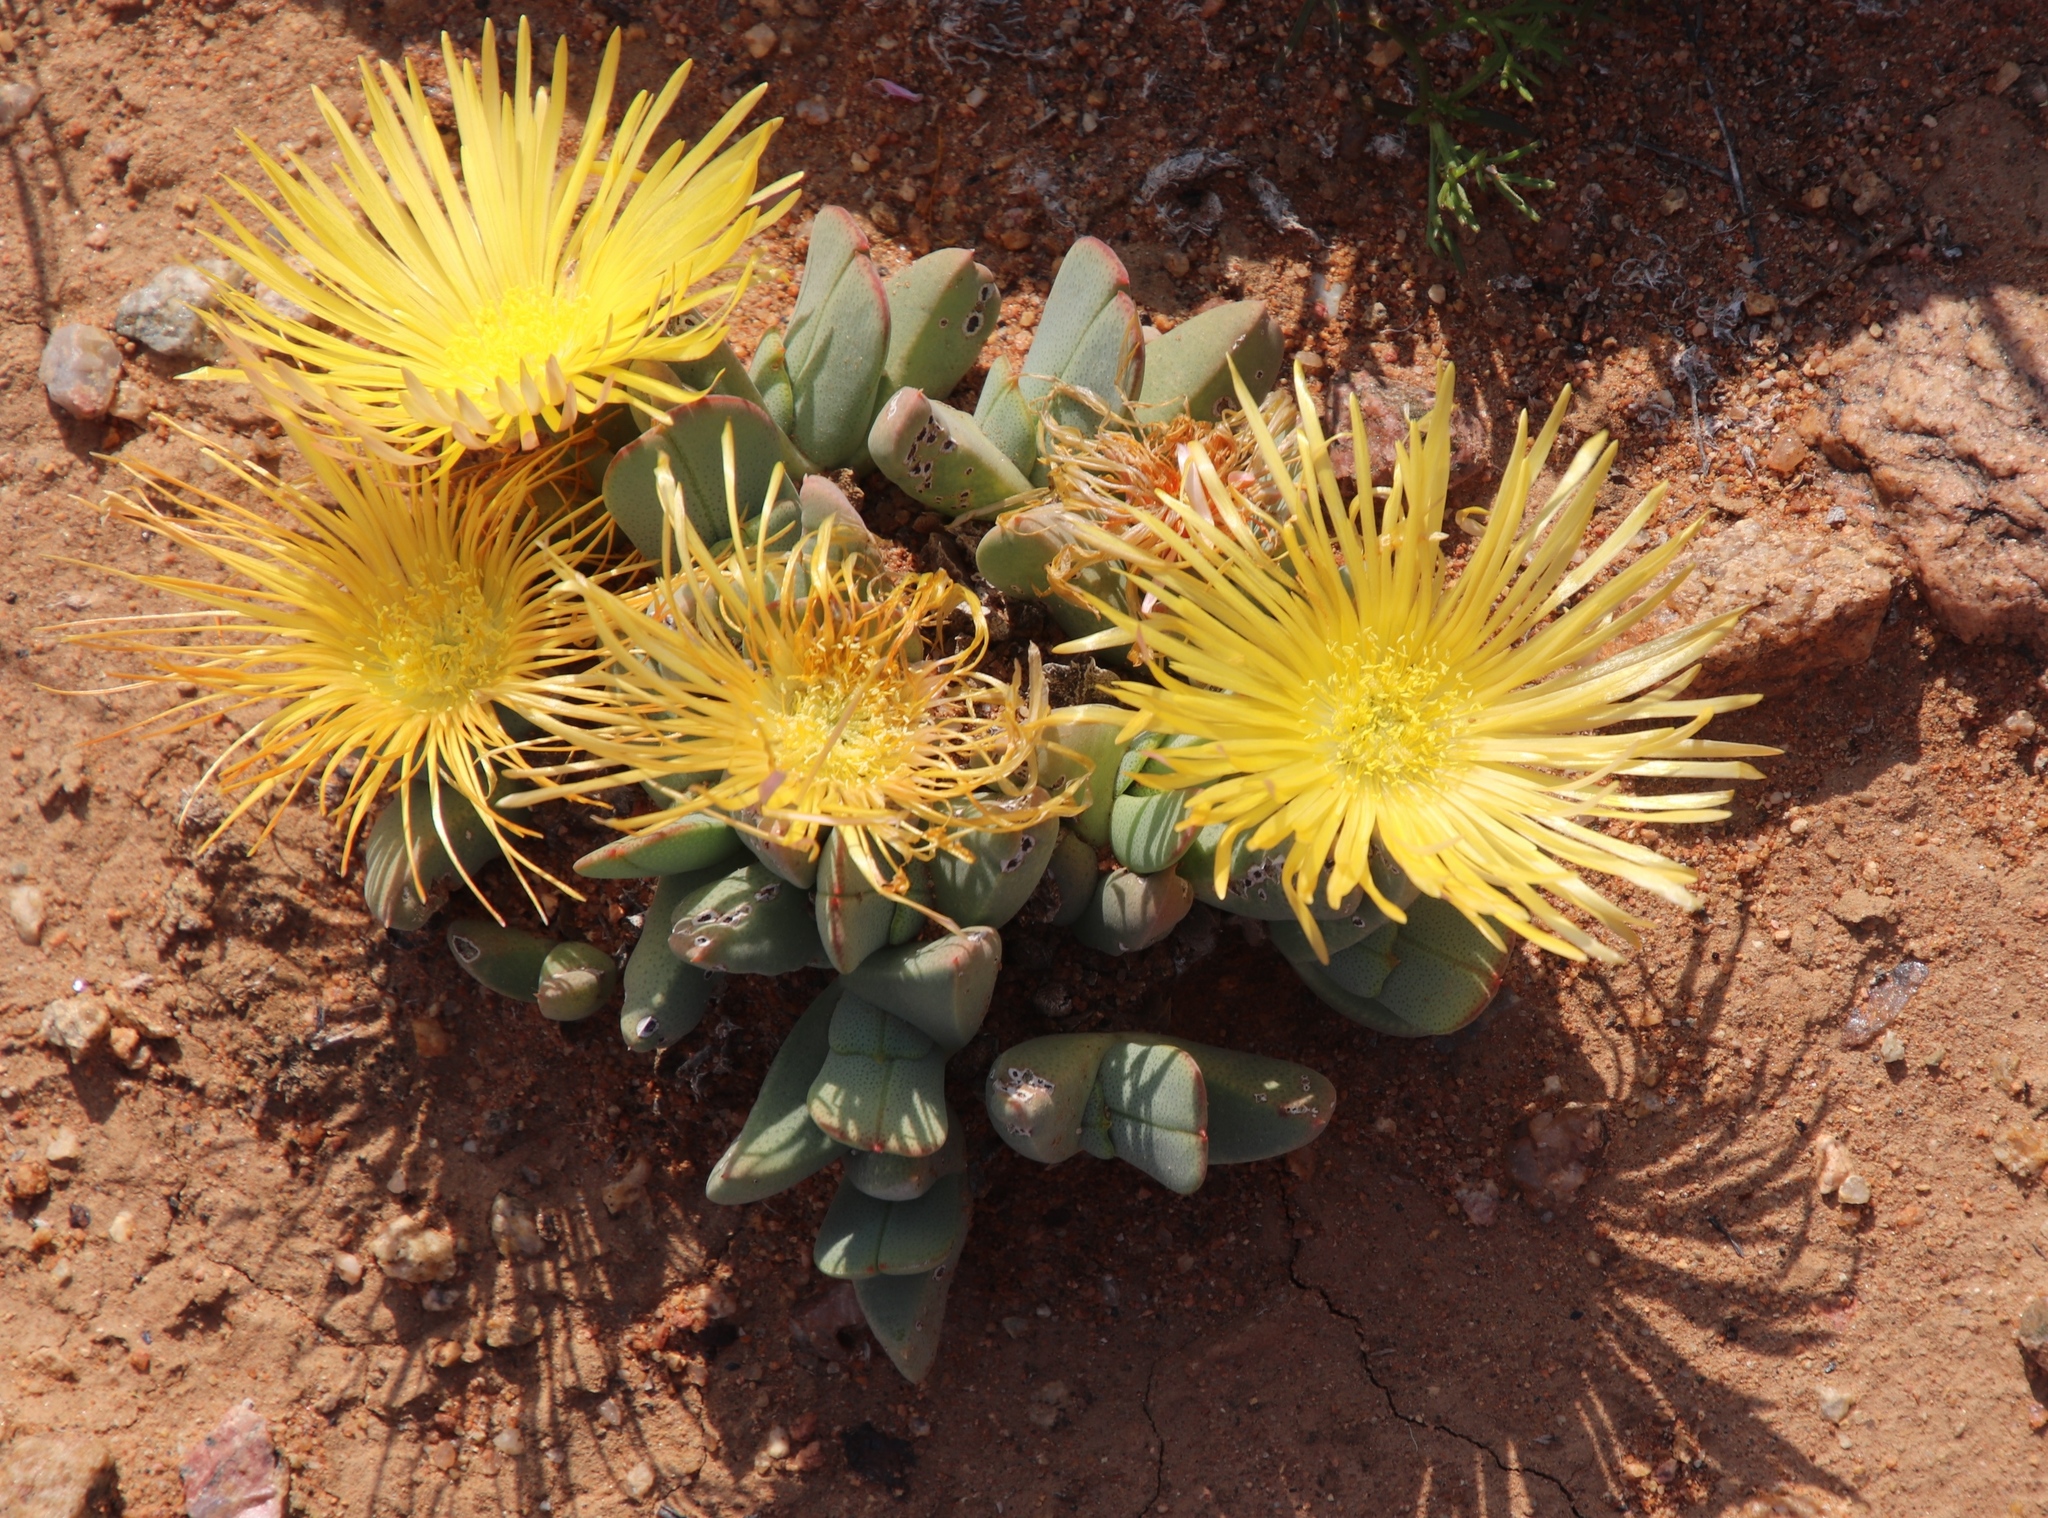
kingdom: Plantae
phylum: Tracheophyta
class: Magnoliopsida
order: Caryophyllales
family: Aizoaceae
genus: Cheiridopsis
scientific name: Cheiridopsis excavata
